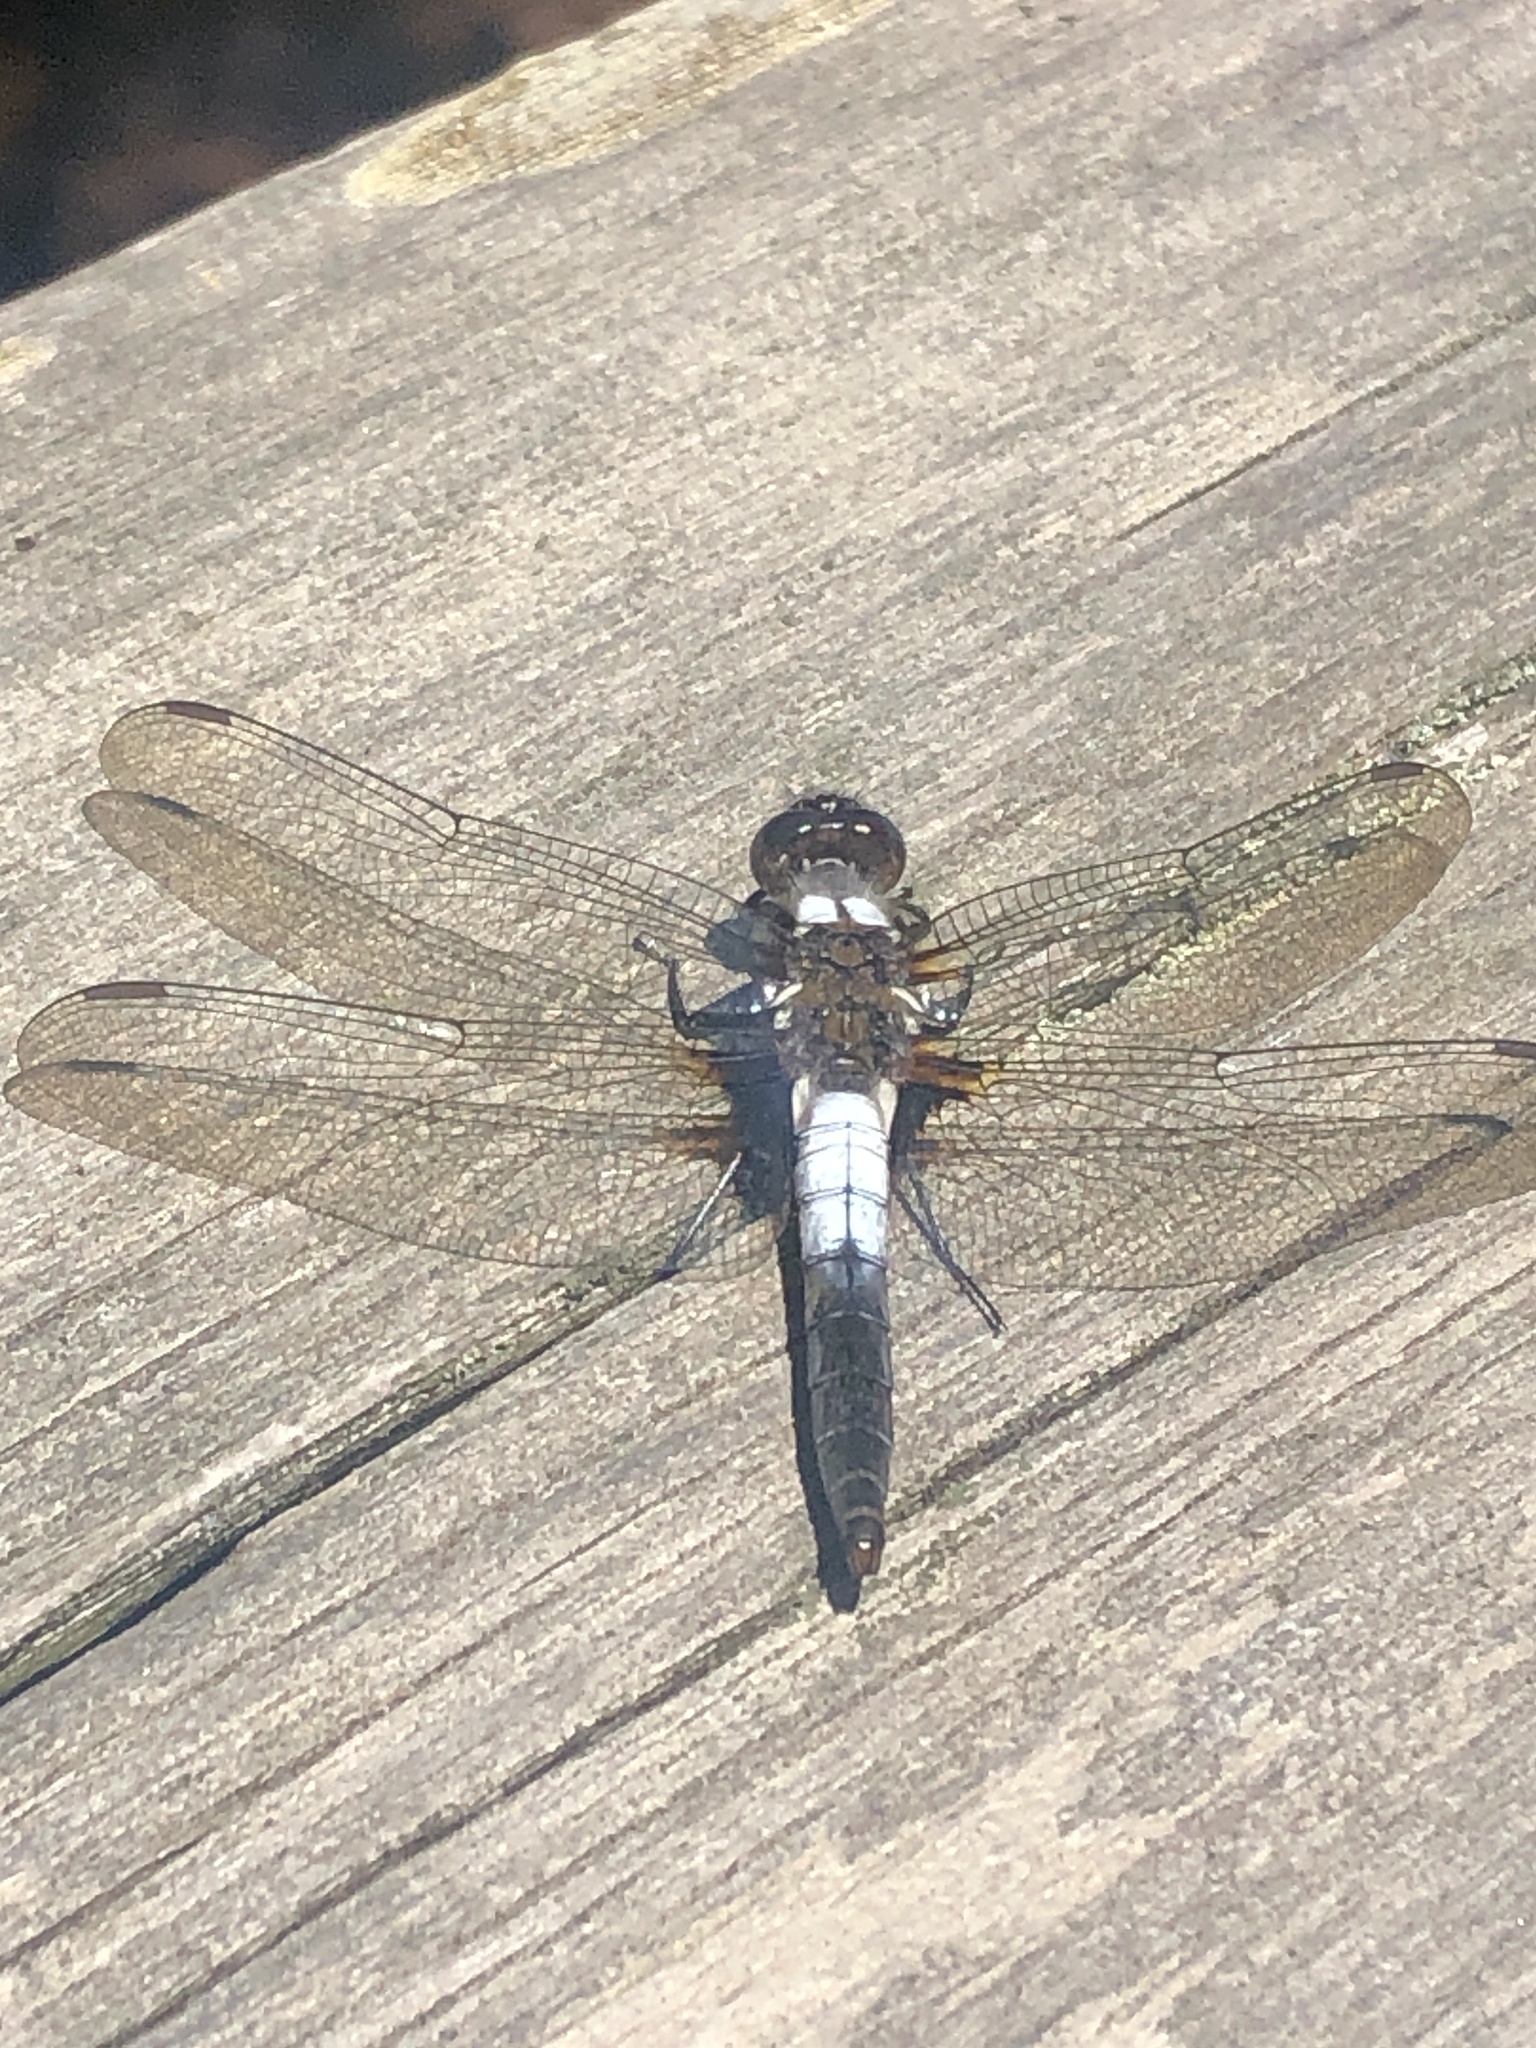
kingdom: Animalia
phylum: Arthropoda
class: Insecta
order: Odonata
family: Libellulidae
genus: Ladona
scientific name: Ladona julia
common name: Chalk-fronted corporal
